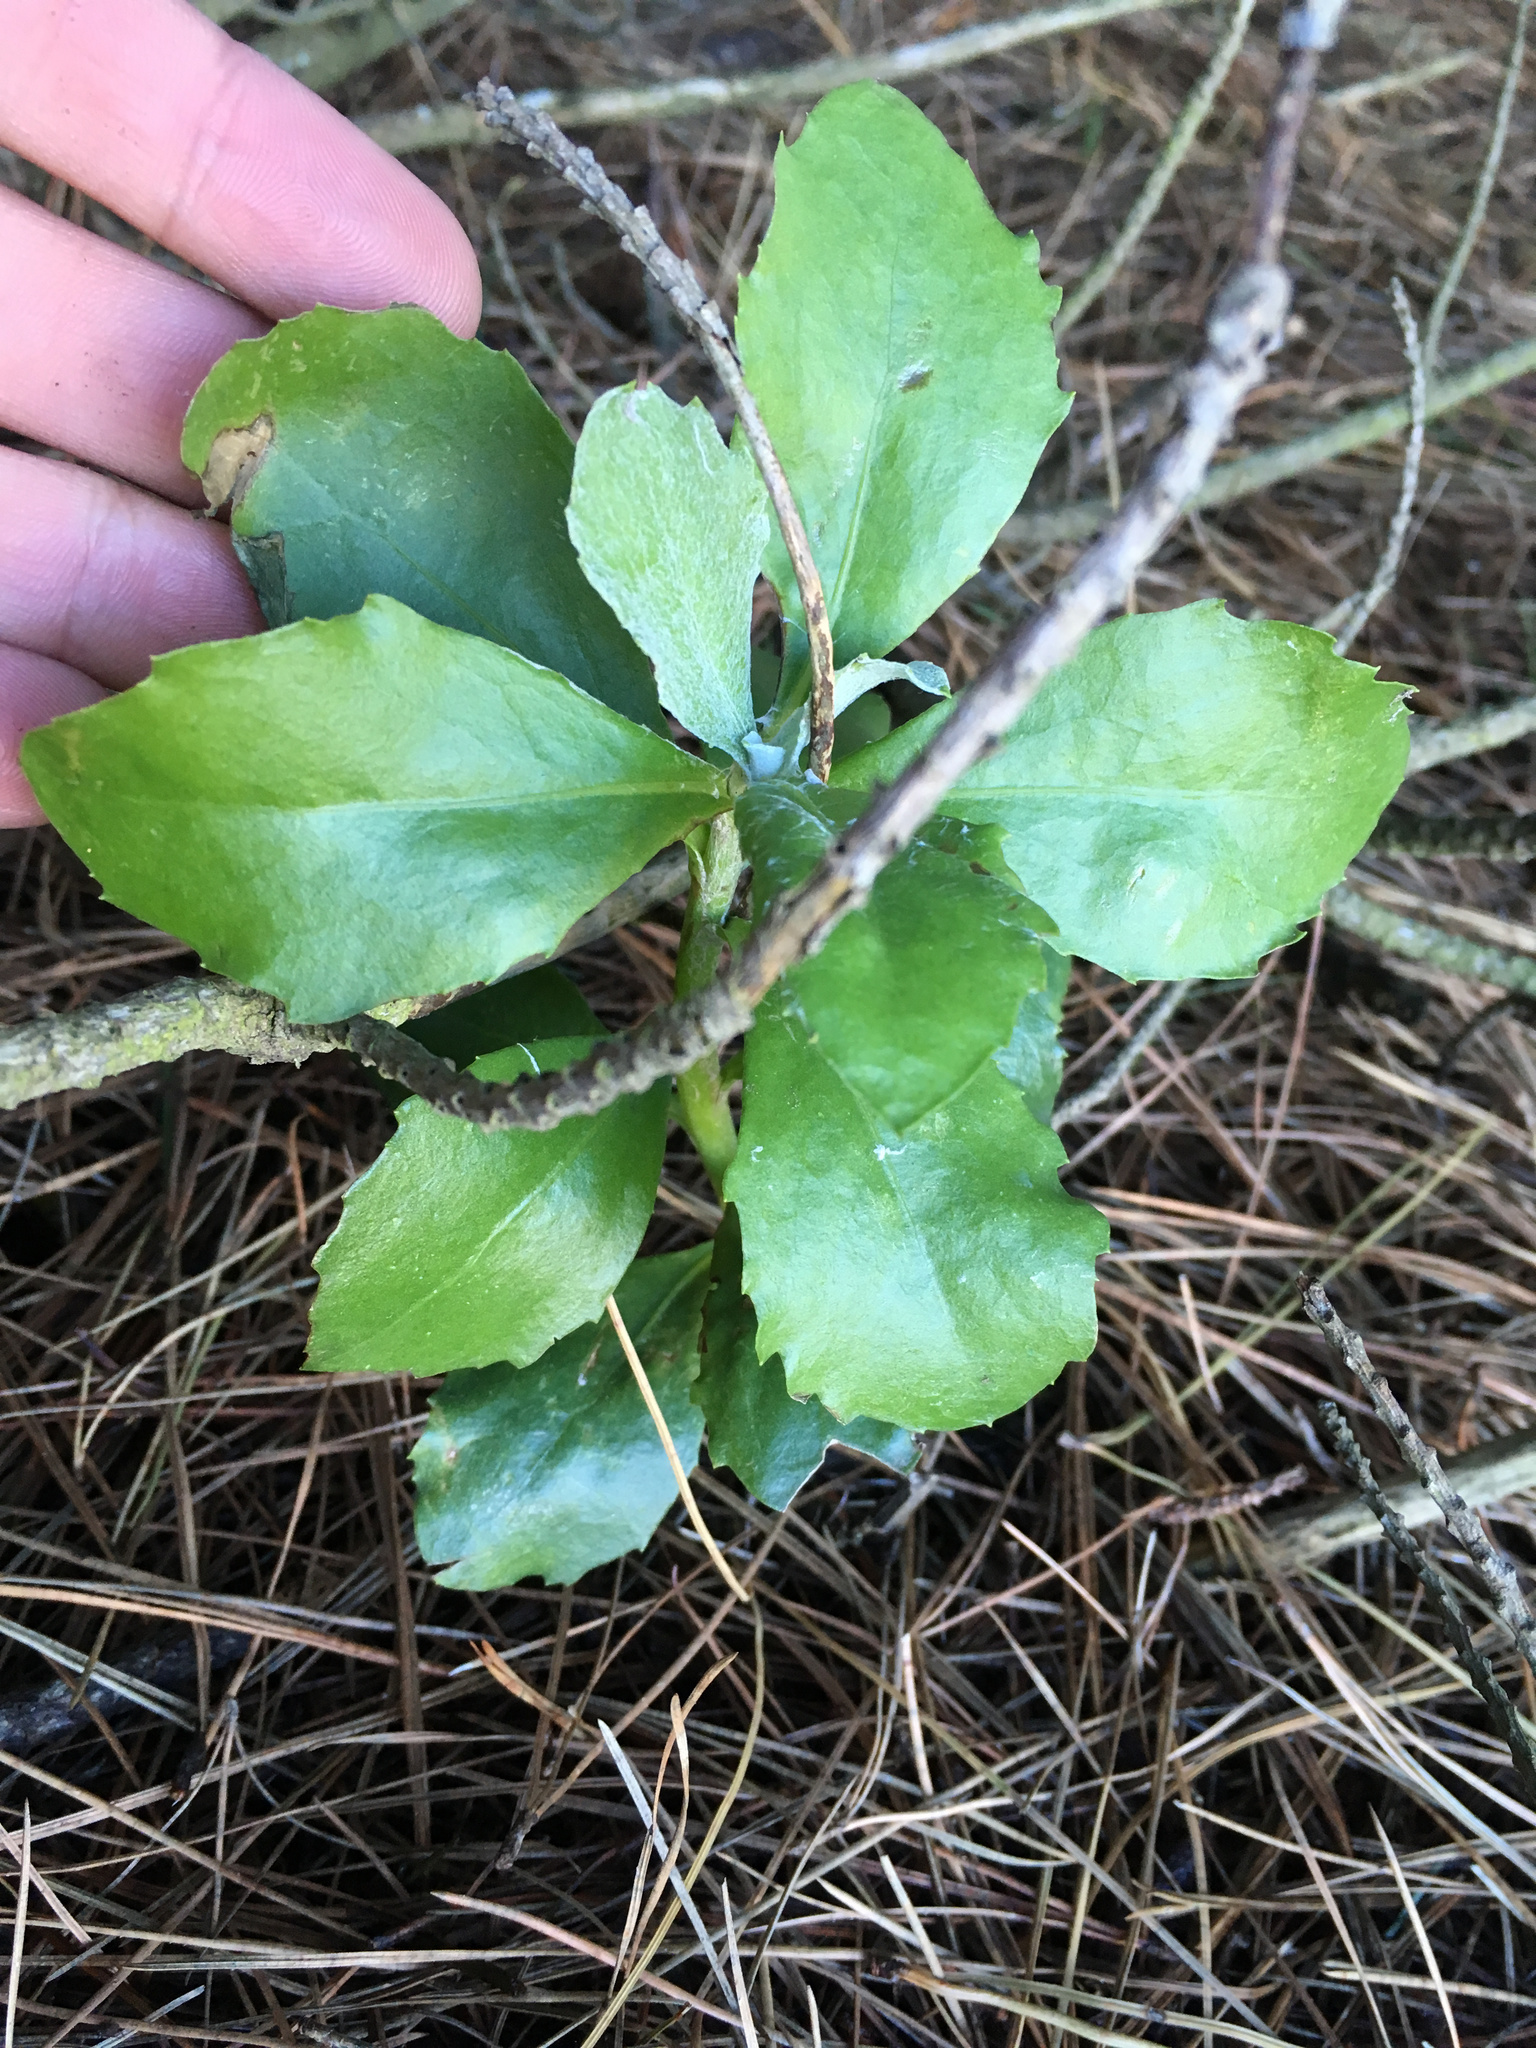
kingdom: Plantae
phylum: Tracheophyta
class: Magnoliopsida
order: Asterales
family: Asteraceae
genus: Osteospermum
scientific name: Osteospermum moniliferum
